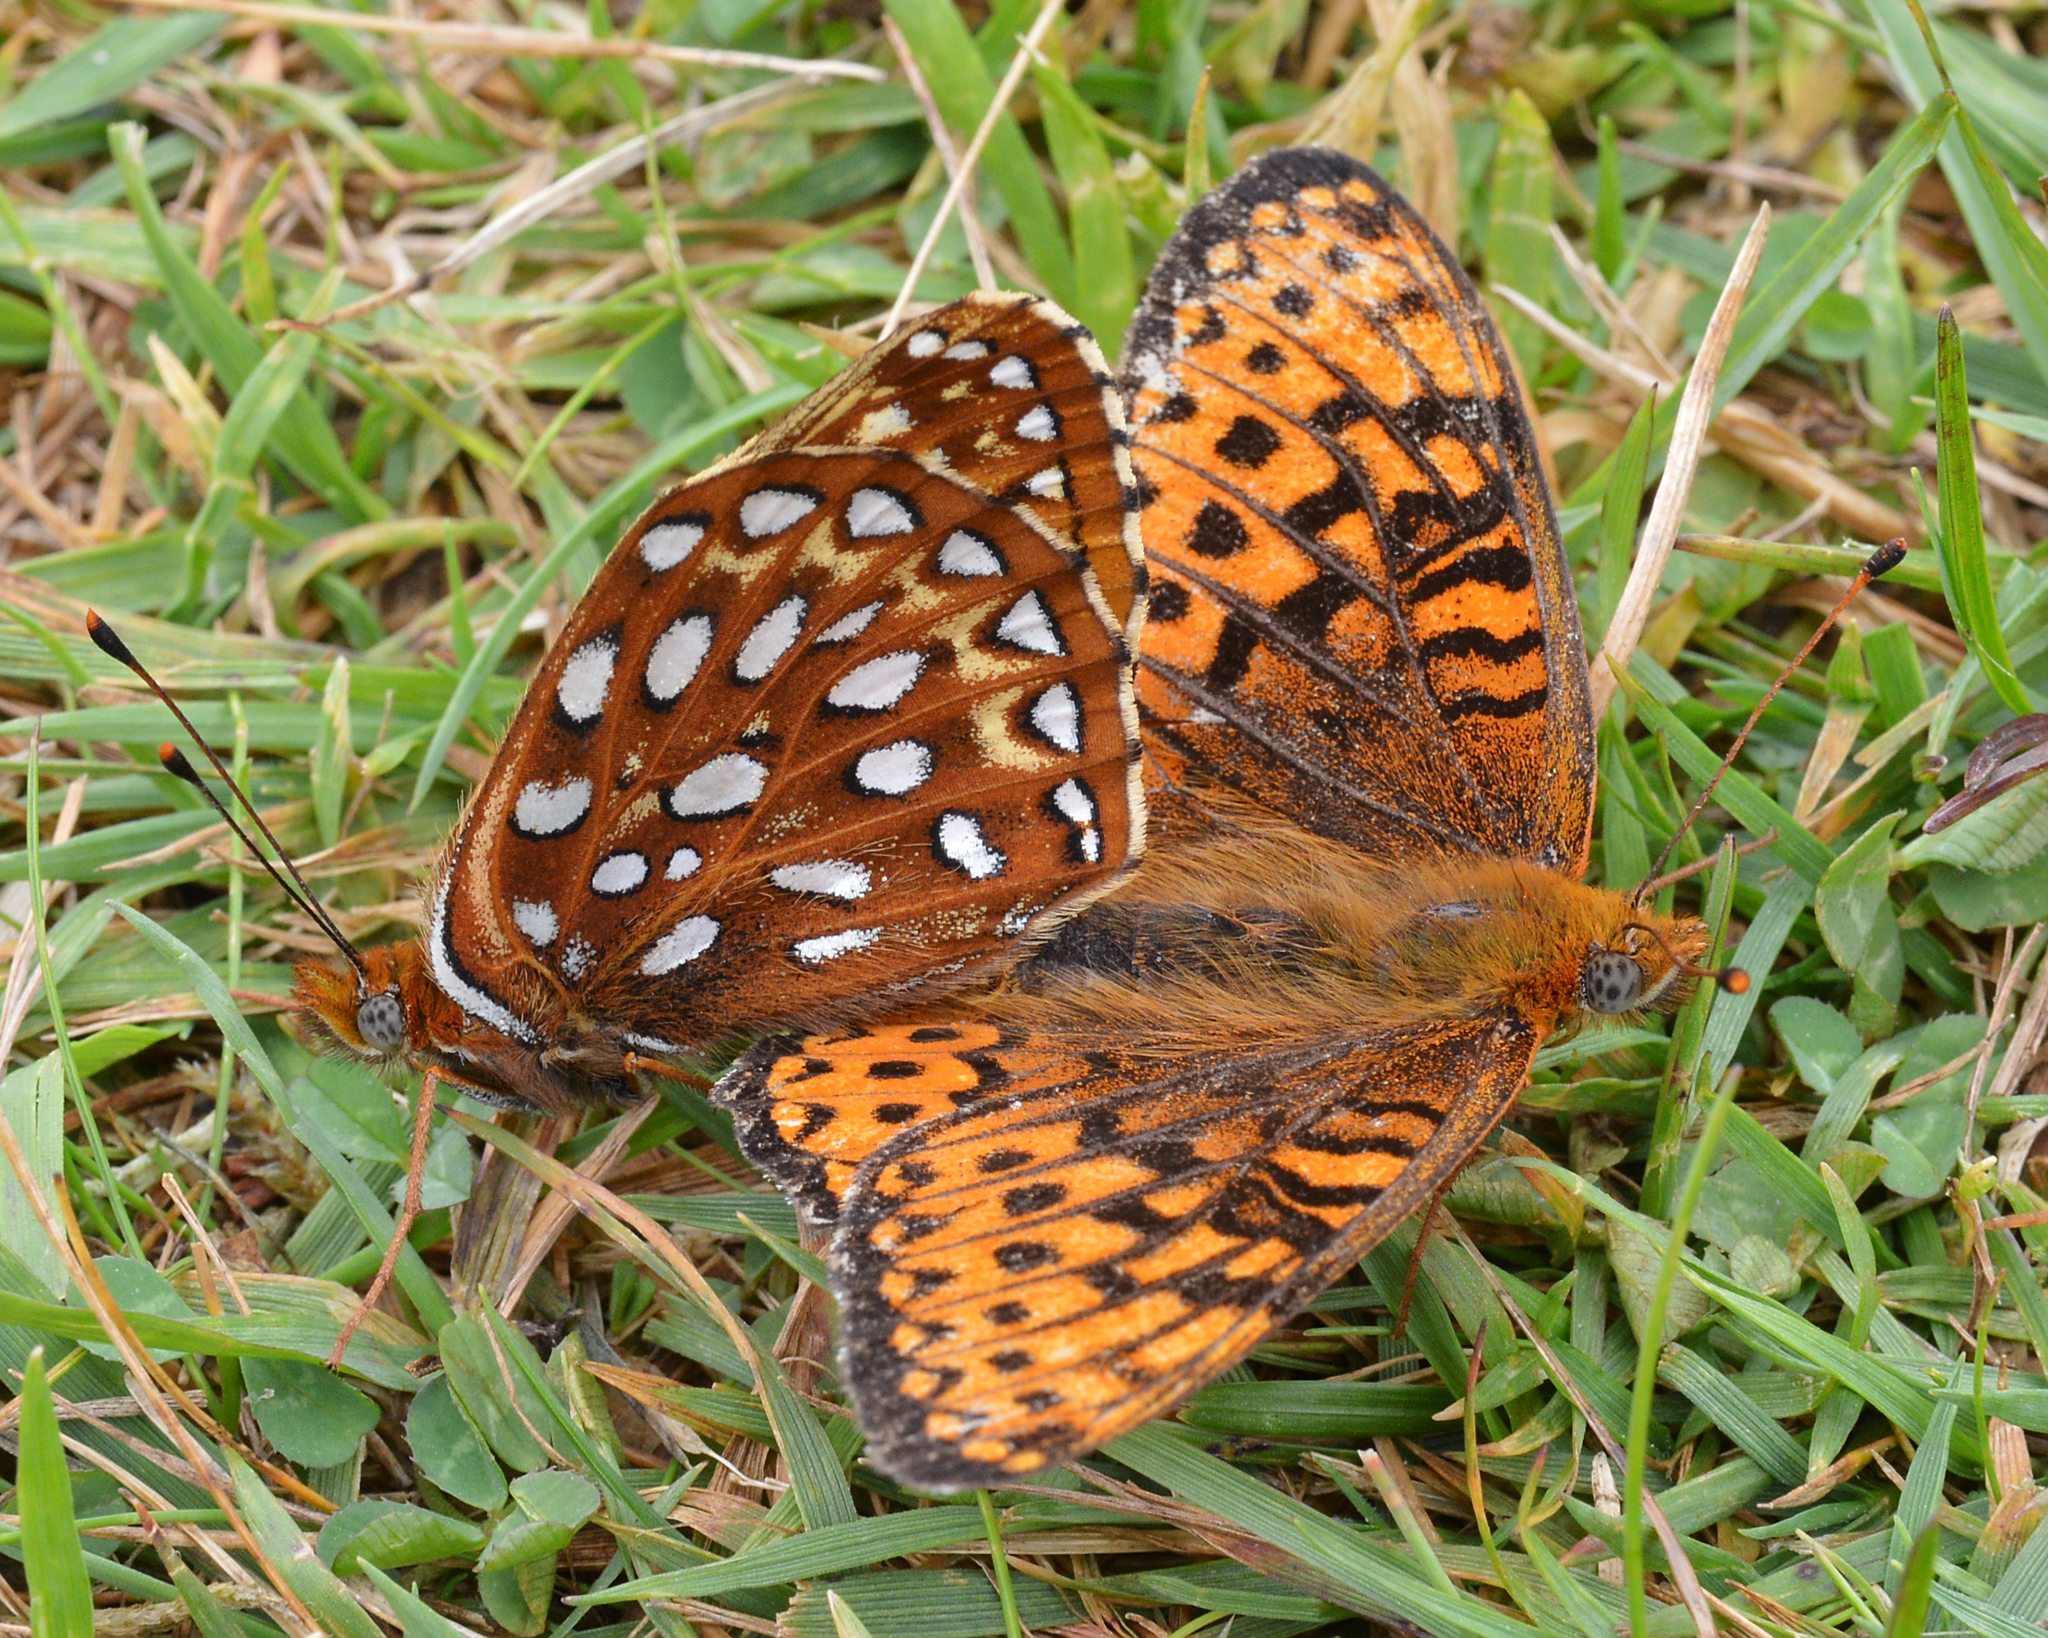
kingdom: Animalia
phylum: Arthropoda
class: Insecta
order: Lepidoptera
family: Nymphalidae
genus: Speyeria
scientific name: Speyeria atlantis
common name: Atlantis fritillary
